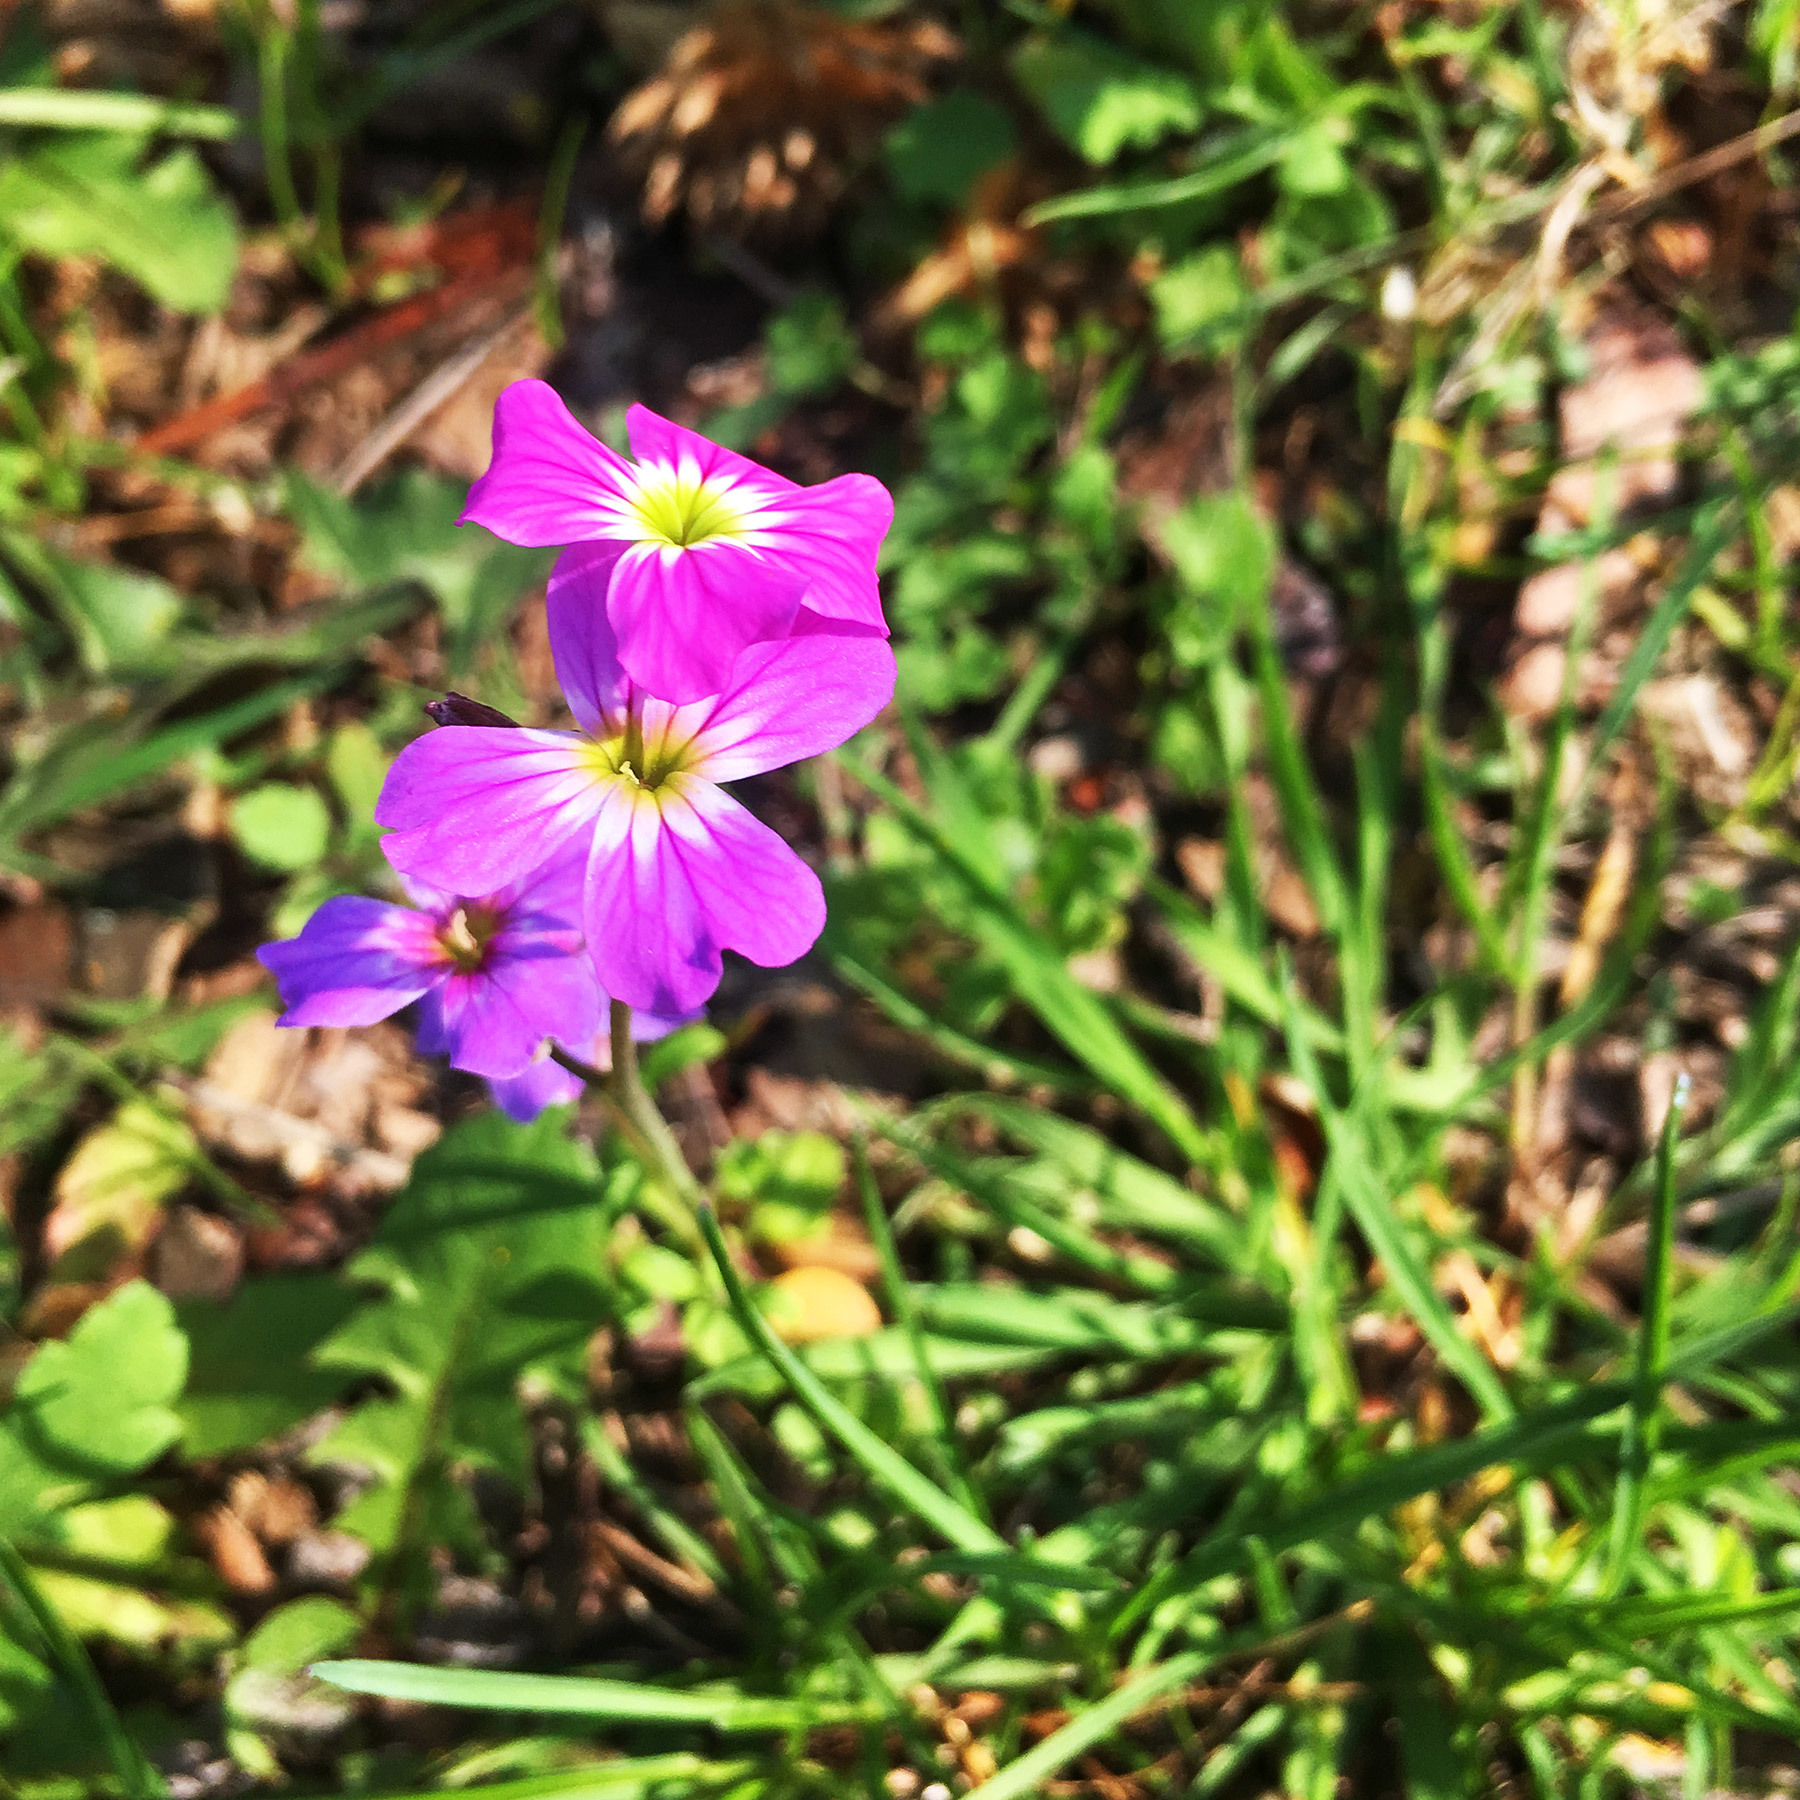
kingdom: Plantae
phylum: Tracheophyta
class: Magnoliopsida
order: Brassicales
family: Brassicaceae
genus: Malcolmia
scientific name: Malcolmia maritima
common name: Virginia stock
